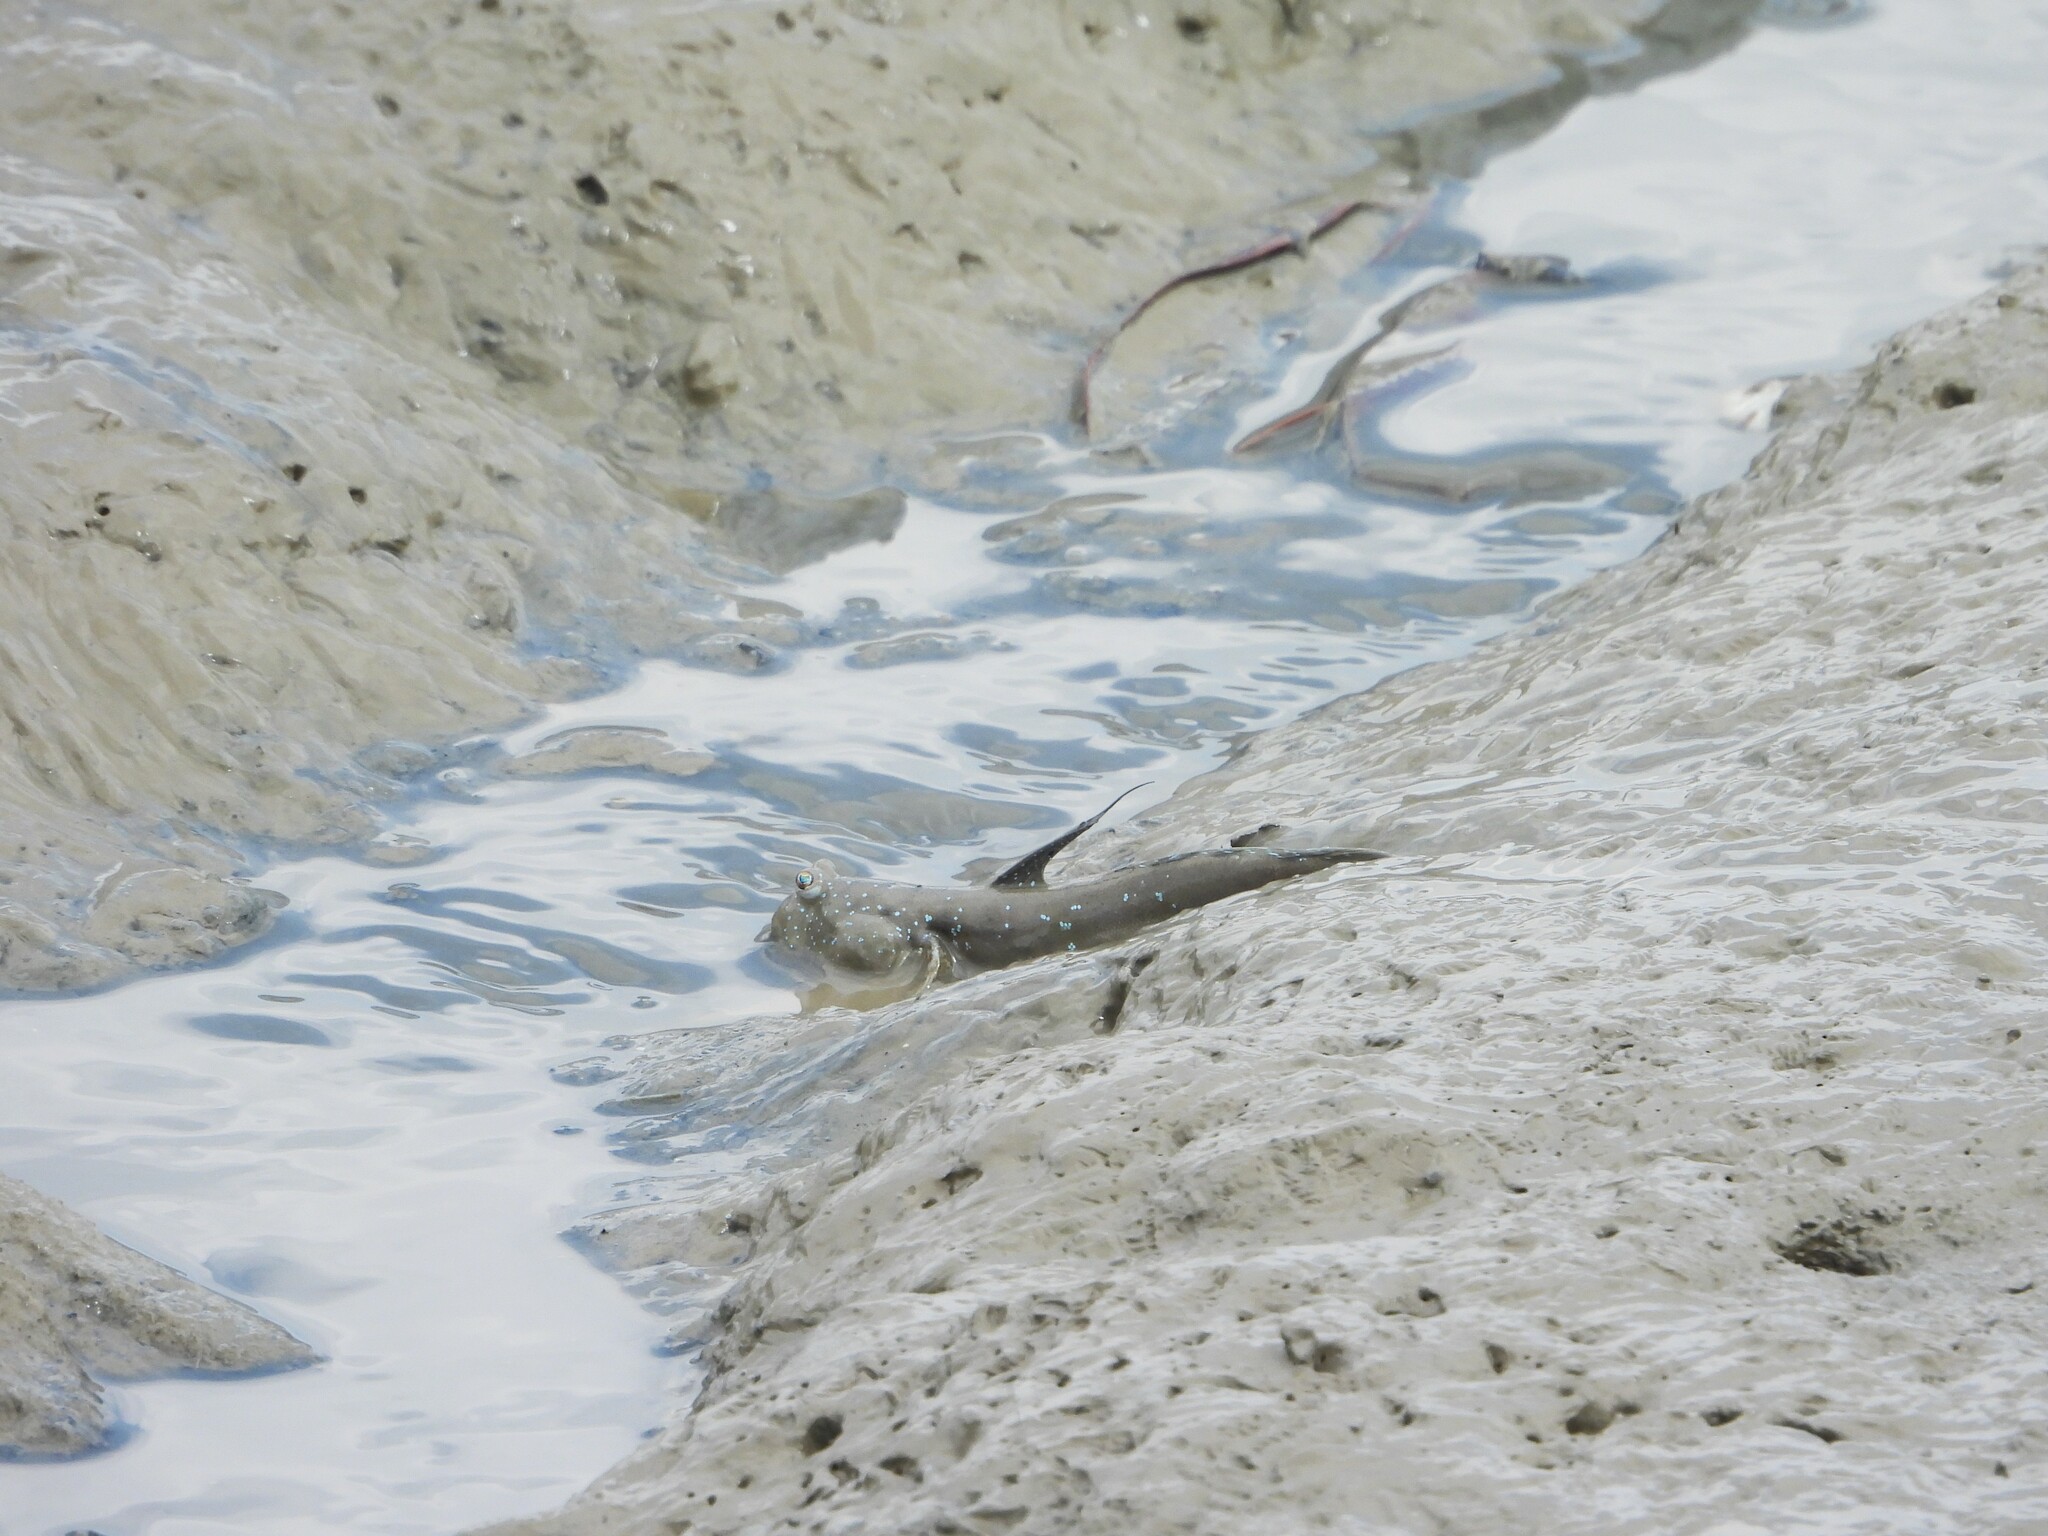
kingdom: Animalia
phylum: Chordata
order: Perciformes
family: Gobiidae
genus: Boleophthalmus
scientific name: Boleophthalmus pectinirostris
